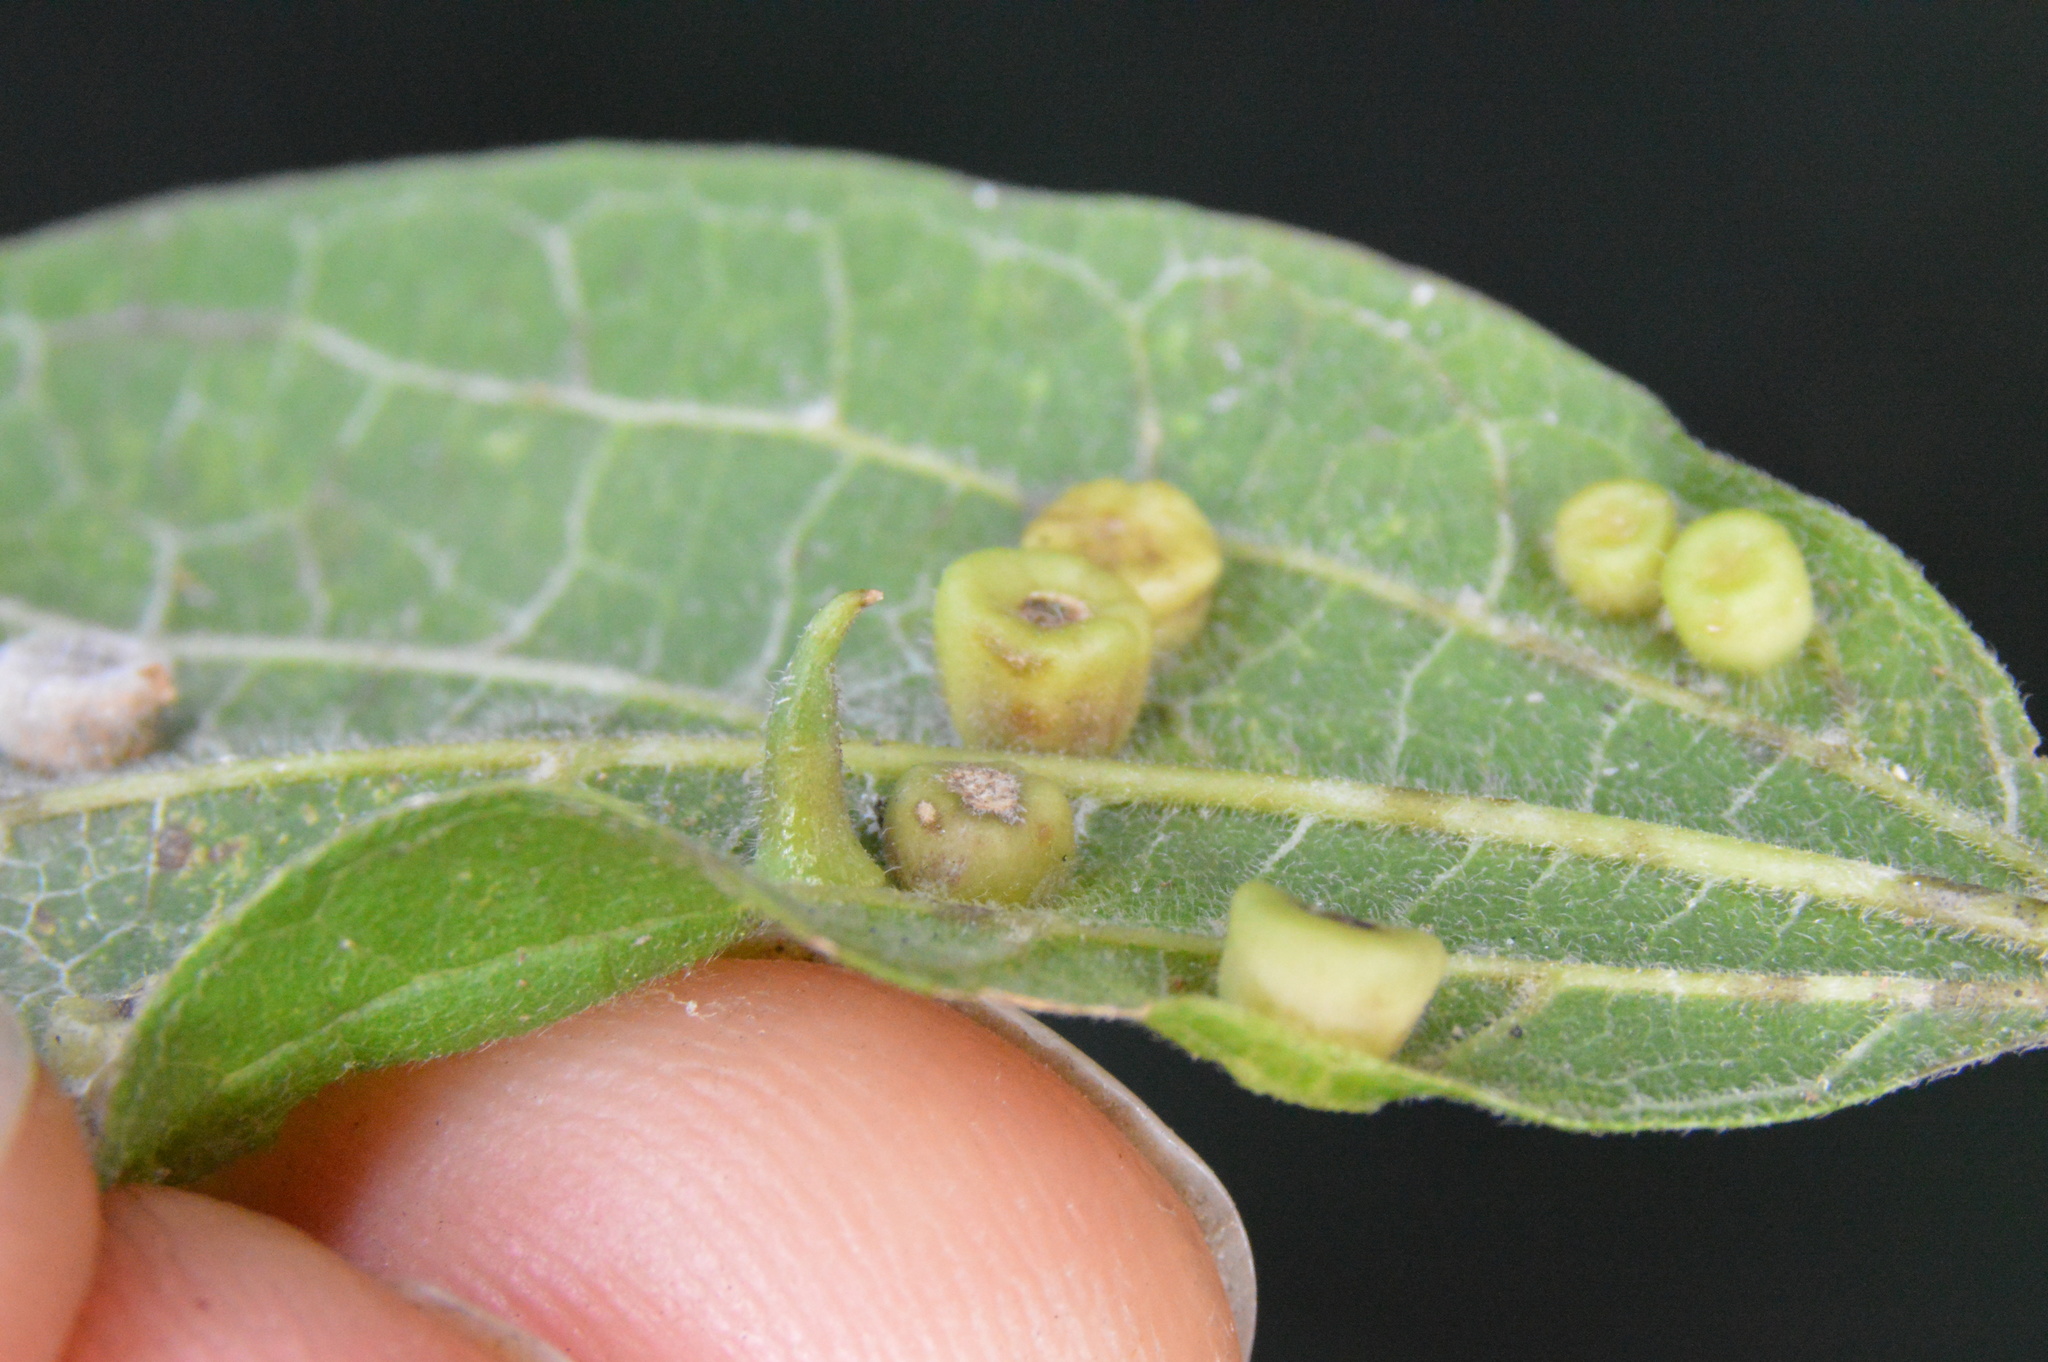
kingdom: Animalia
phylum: Arthropoda
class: Insecta
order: Diptera
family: Cecidomyiidae
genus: Celticecis
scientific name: Celticecis subulata
